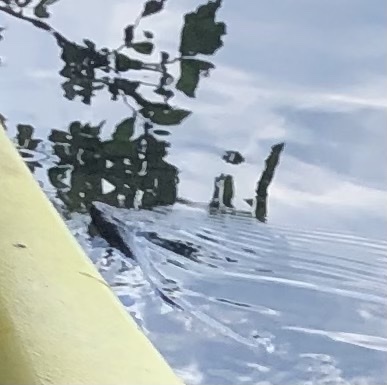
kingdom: Animalia
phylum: Chordata
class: Squamata
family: Colubridae
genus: Nerodia
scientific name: Nerodia sipedon
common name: Northern water snake
